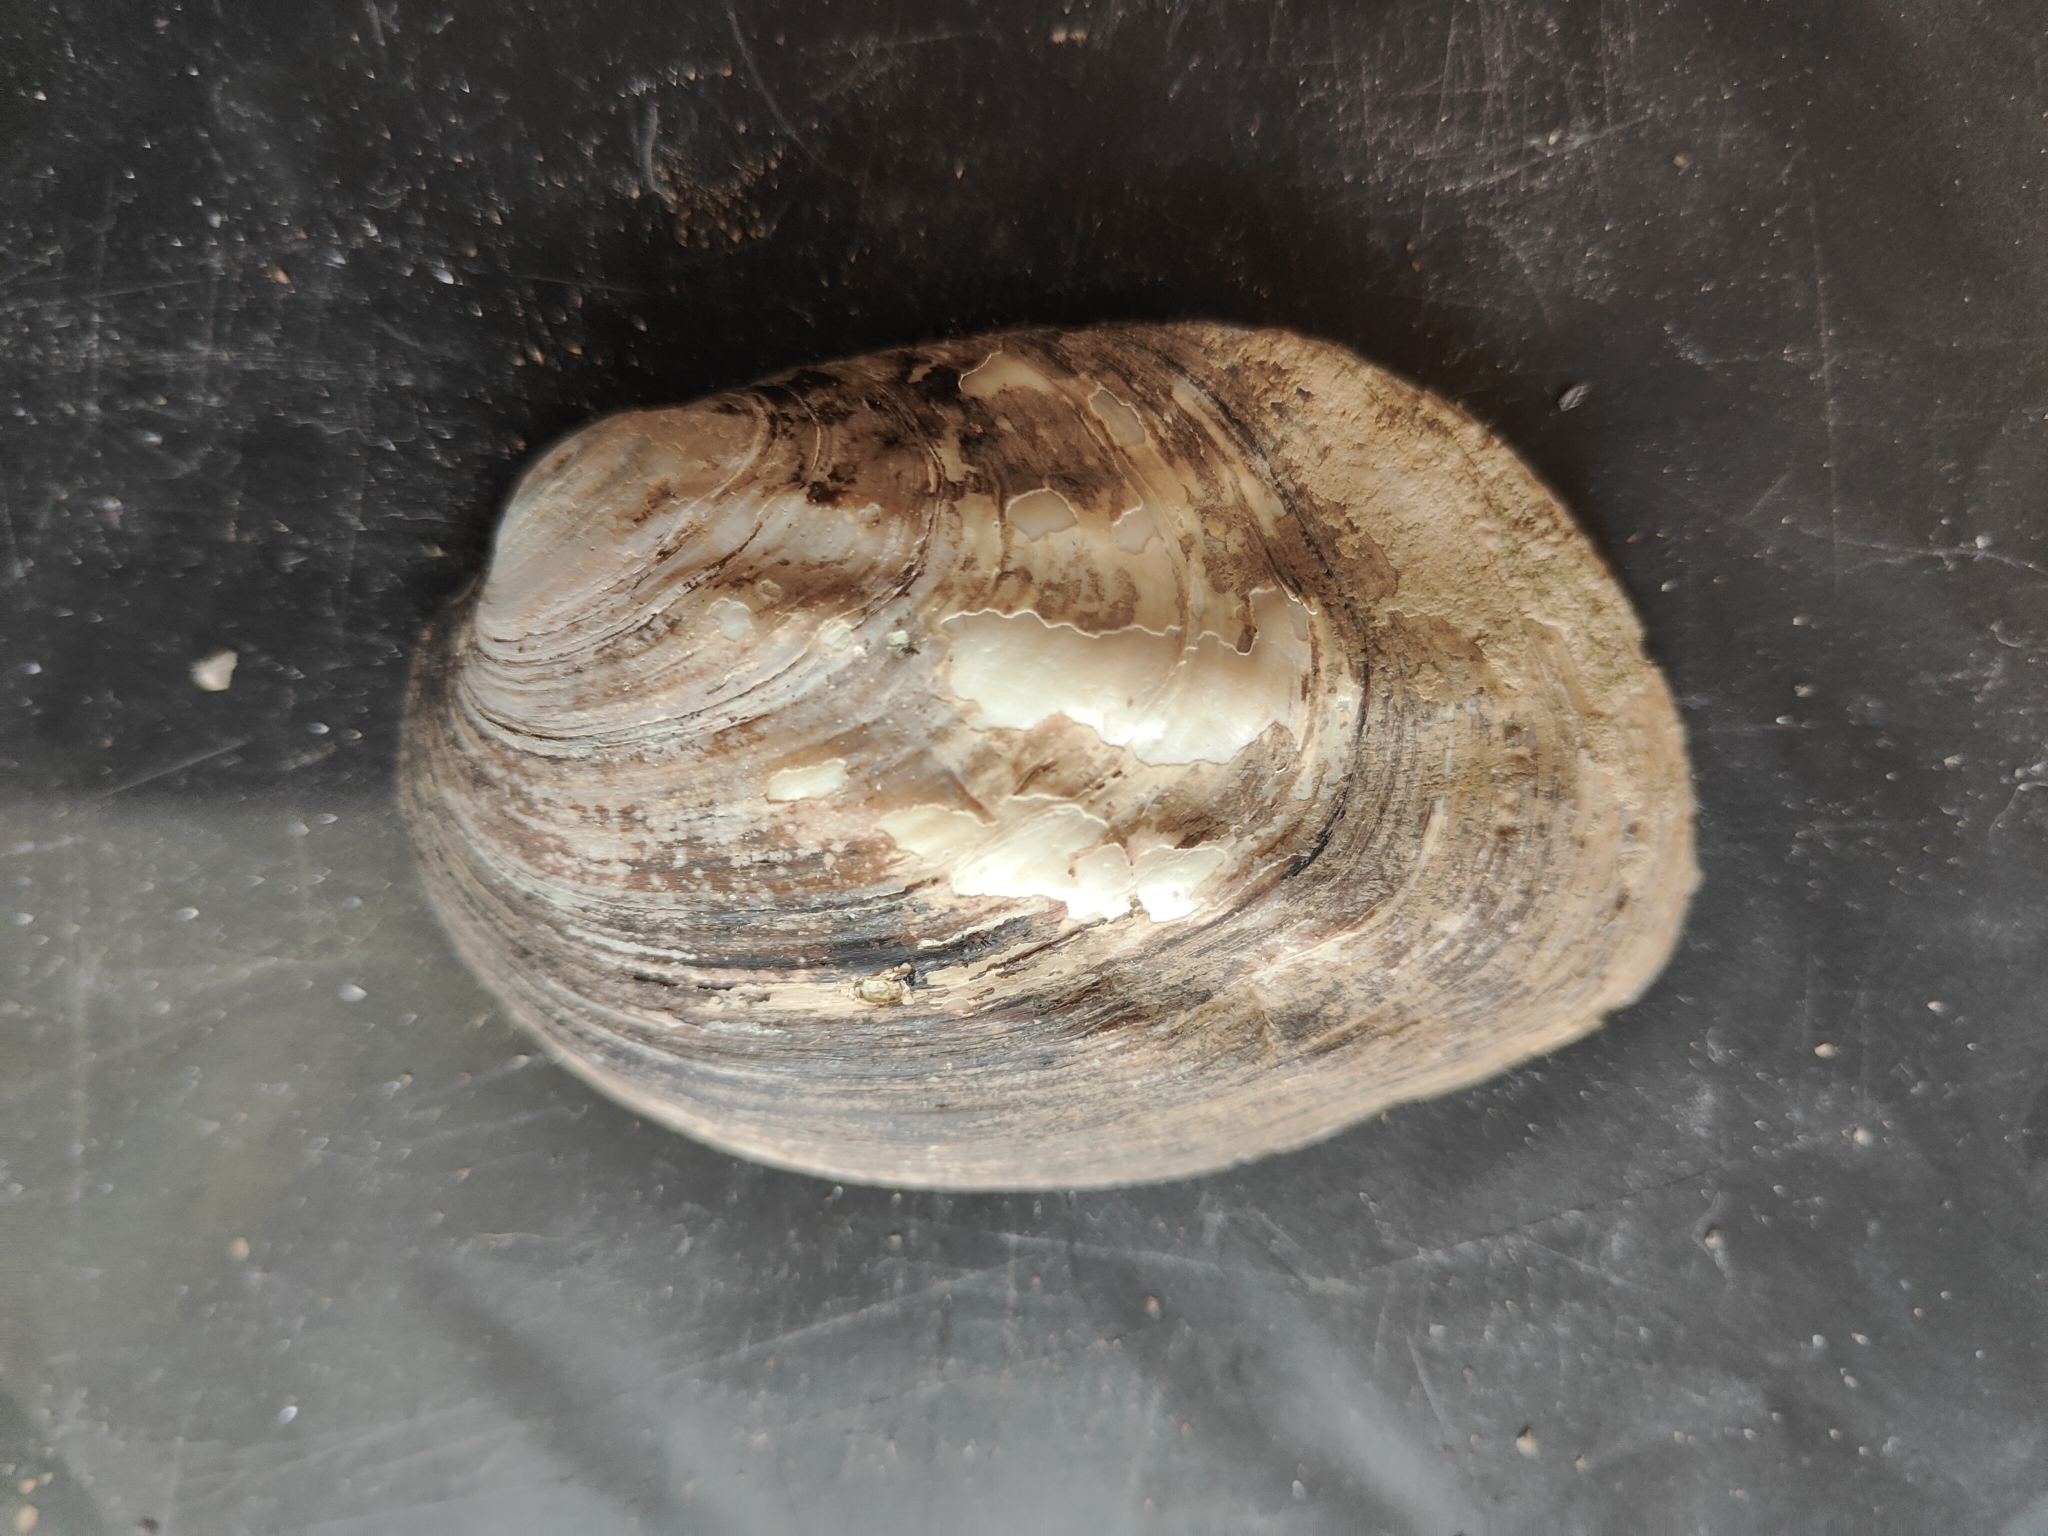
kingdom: Animalia
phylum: Mollusca
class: Bivalvia
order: Unionida
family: Unionidae
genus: Amblema
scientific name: Amblema plicata
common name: Threeridge
